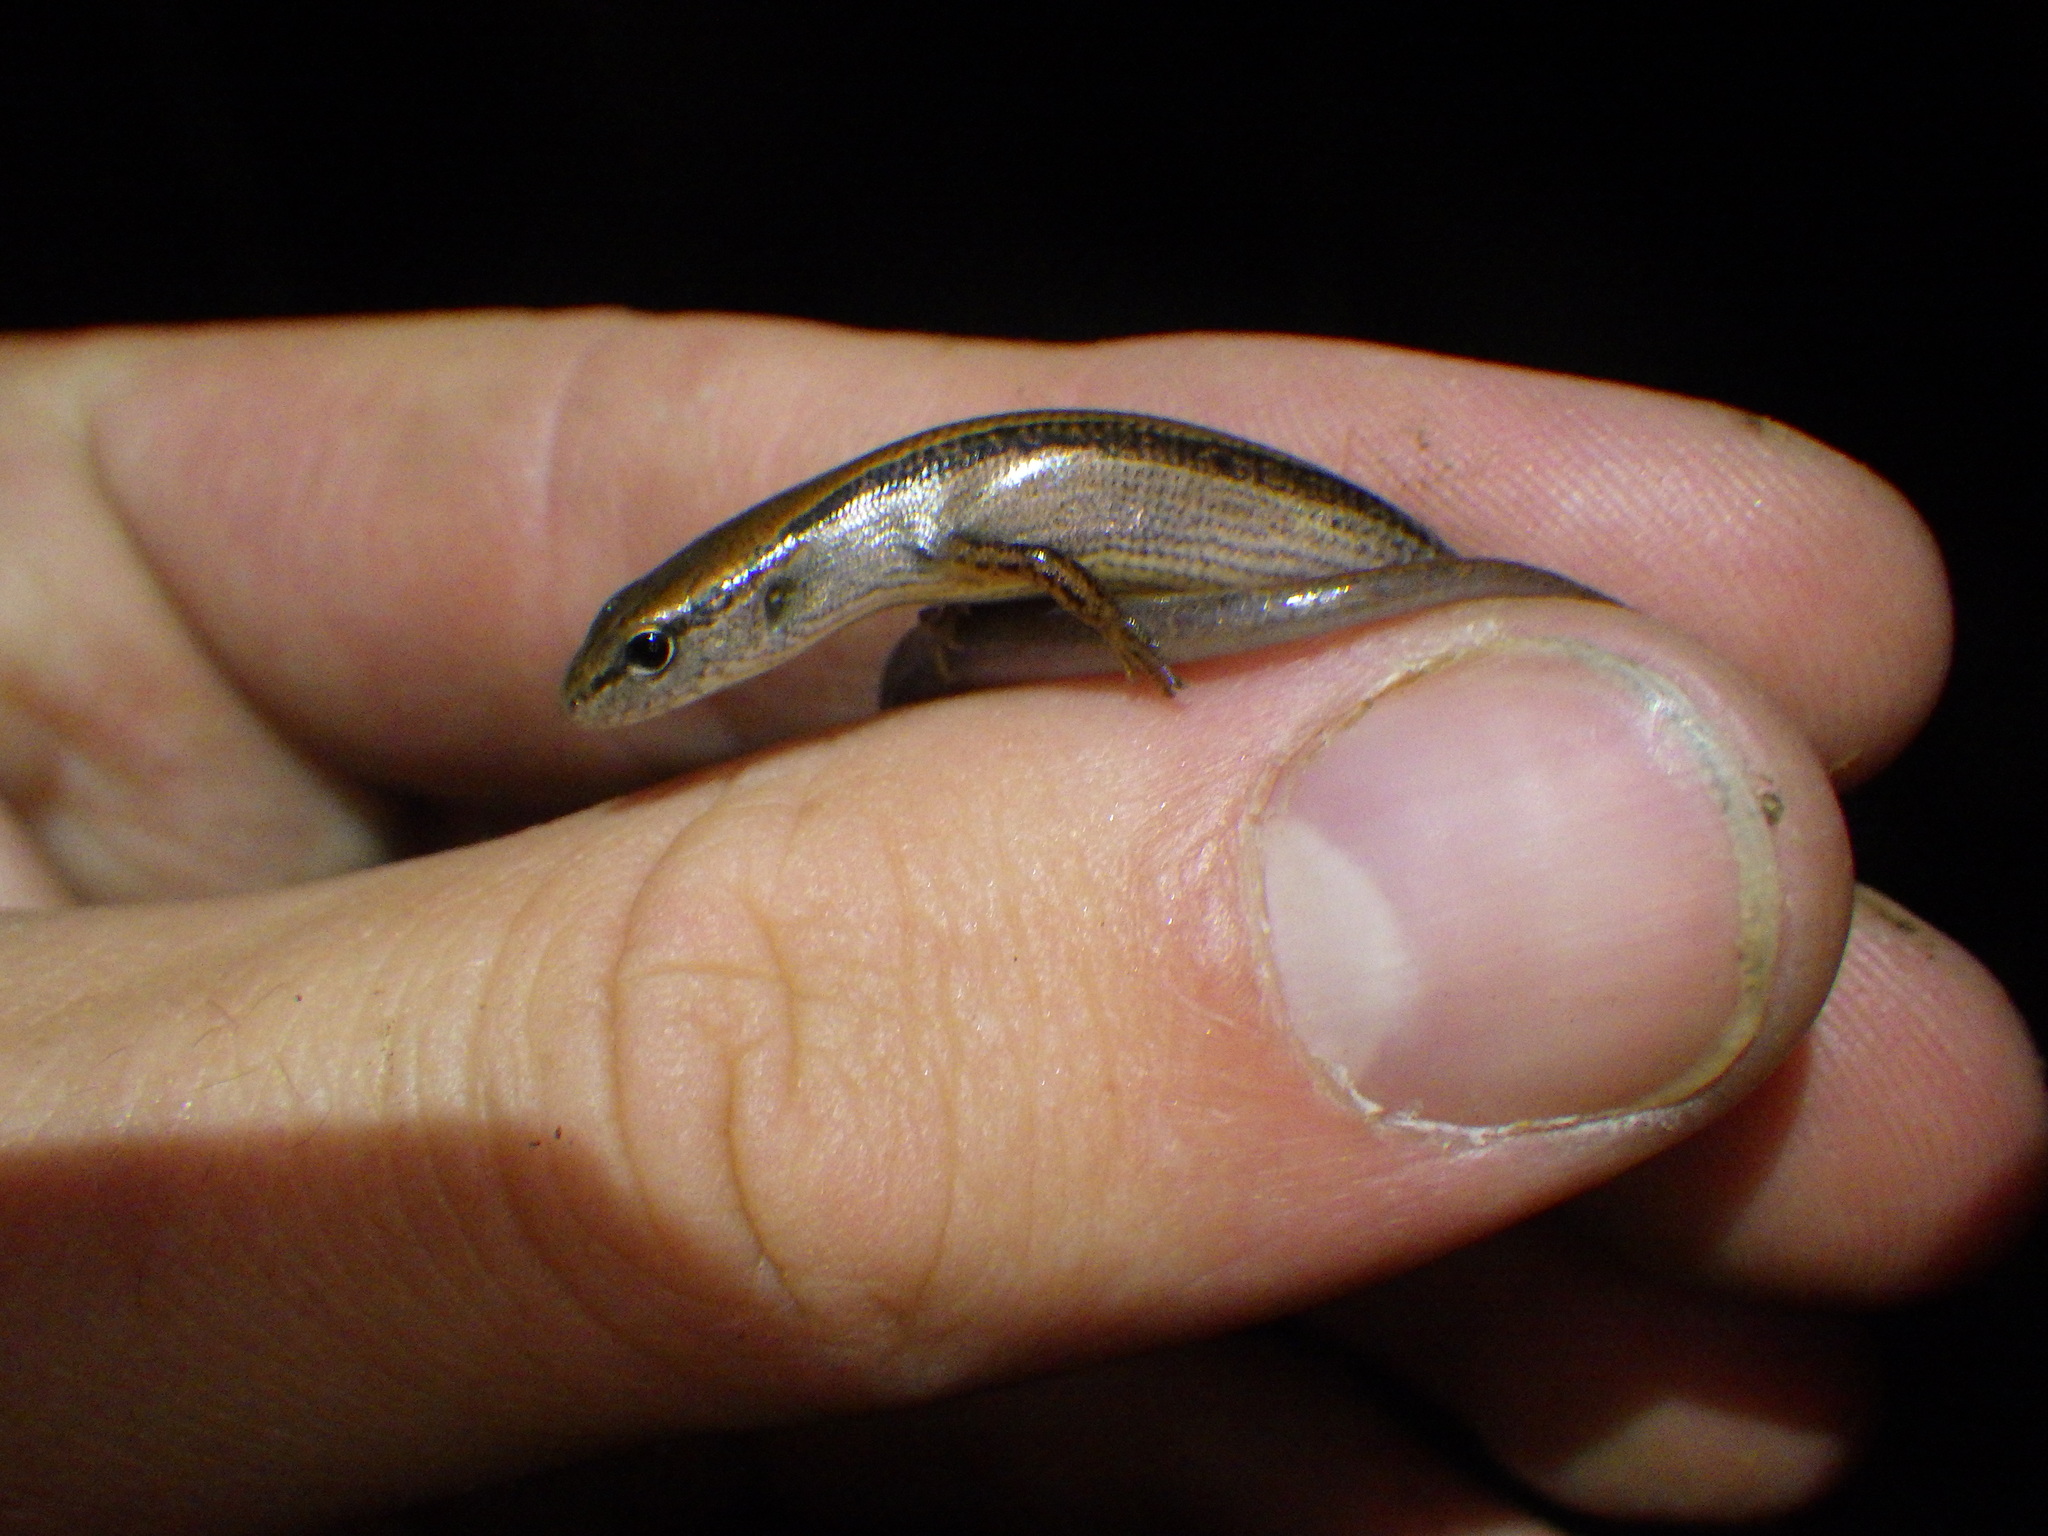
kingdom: Animalia
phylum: Chordata
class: Squamata
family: Scincidae
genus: Scincella
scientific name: Scincella lateralis
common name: Ground skink
